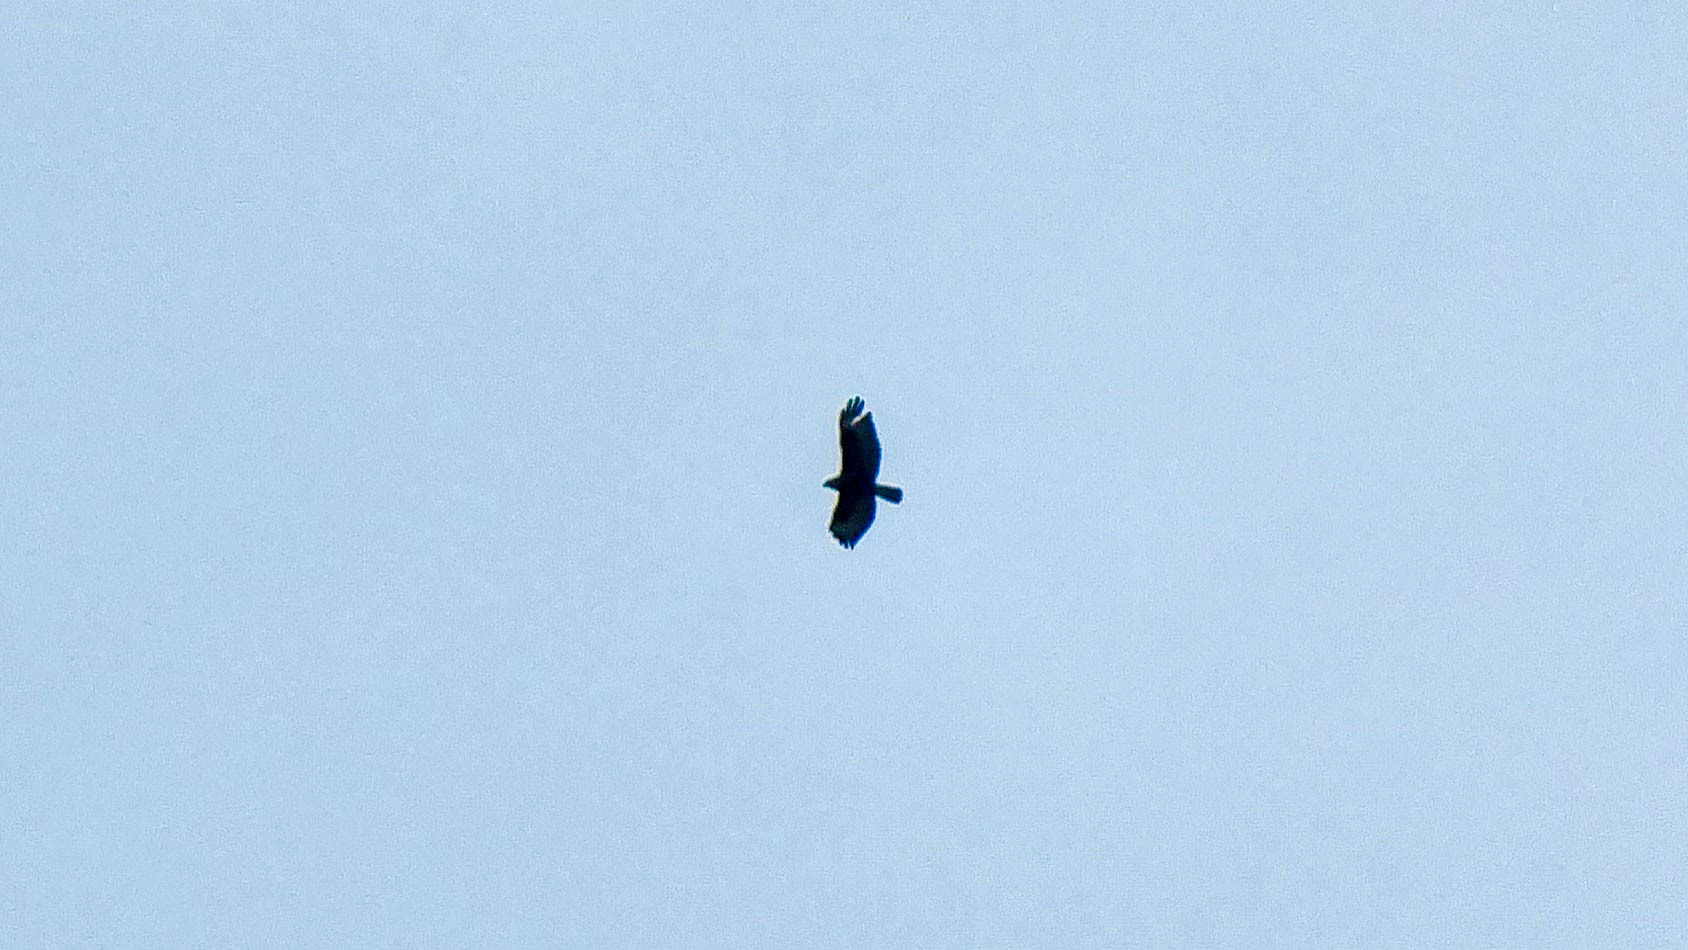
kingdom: Animalia
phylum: Chordata
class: Aves
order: Accipitriformes
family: Accipitridae
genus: Milvus
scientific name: Milvus migrans
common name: Black kite
